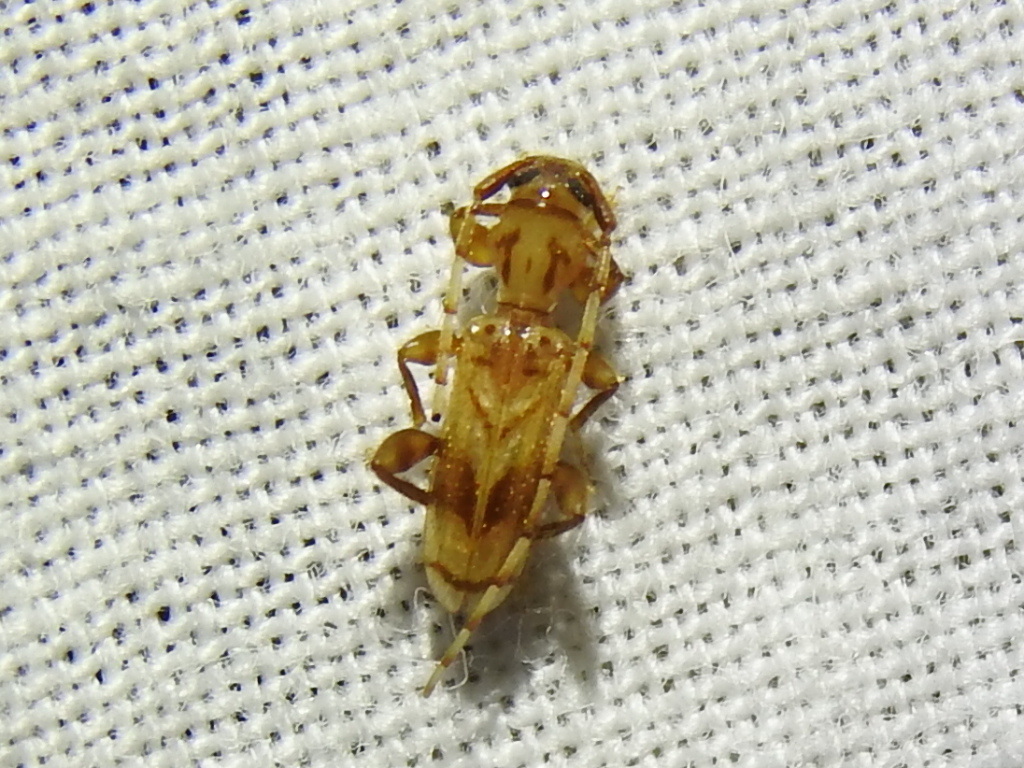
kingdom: Animalia
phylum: Arthropoda
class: Insecta
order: Coleoptera
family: Cerambycidae
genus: Obrium
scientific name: Obrium maculatum
